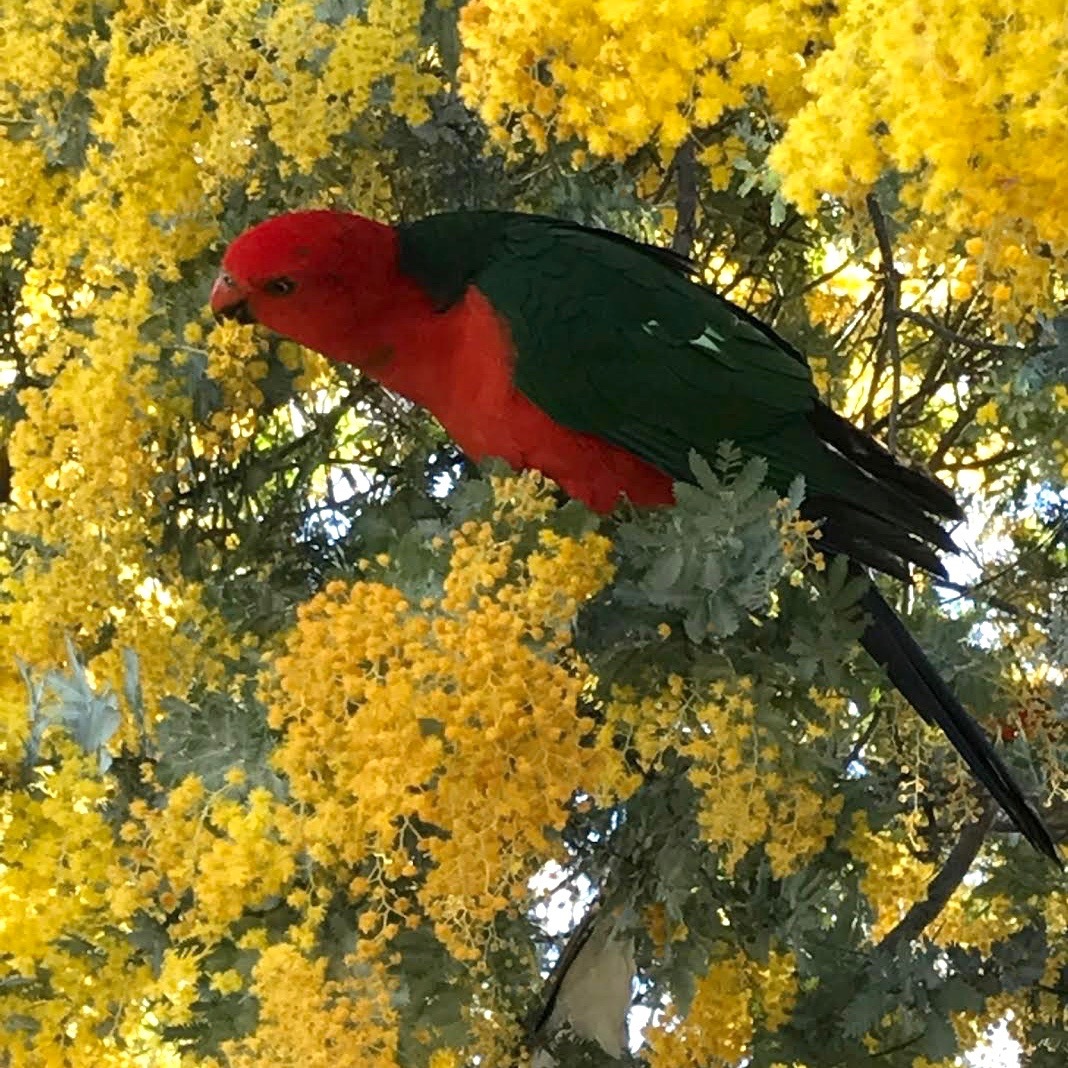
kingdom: Animalia
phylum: Chordata
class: Aves
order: Psittaciformes
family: Psittacidae
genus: Alisterus
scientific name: Alisterus scapularis
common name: Australian king parrot
